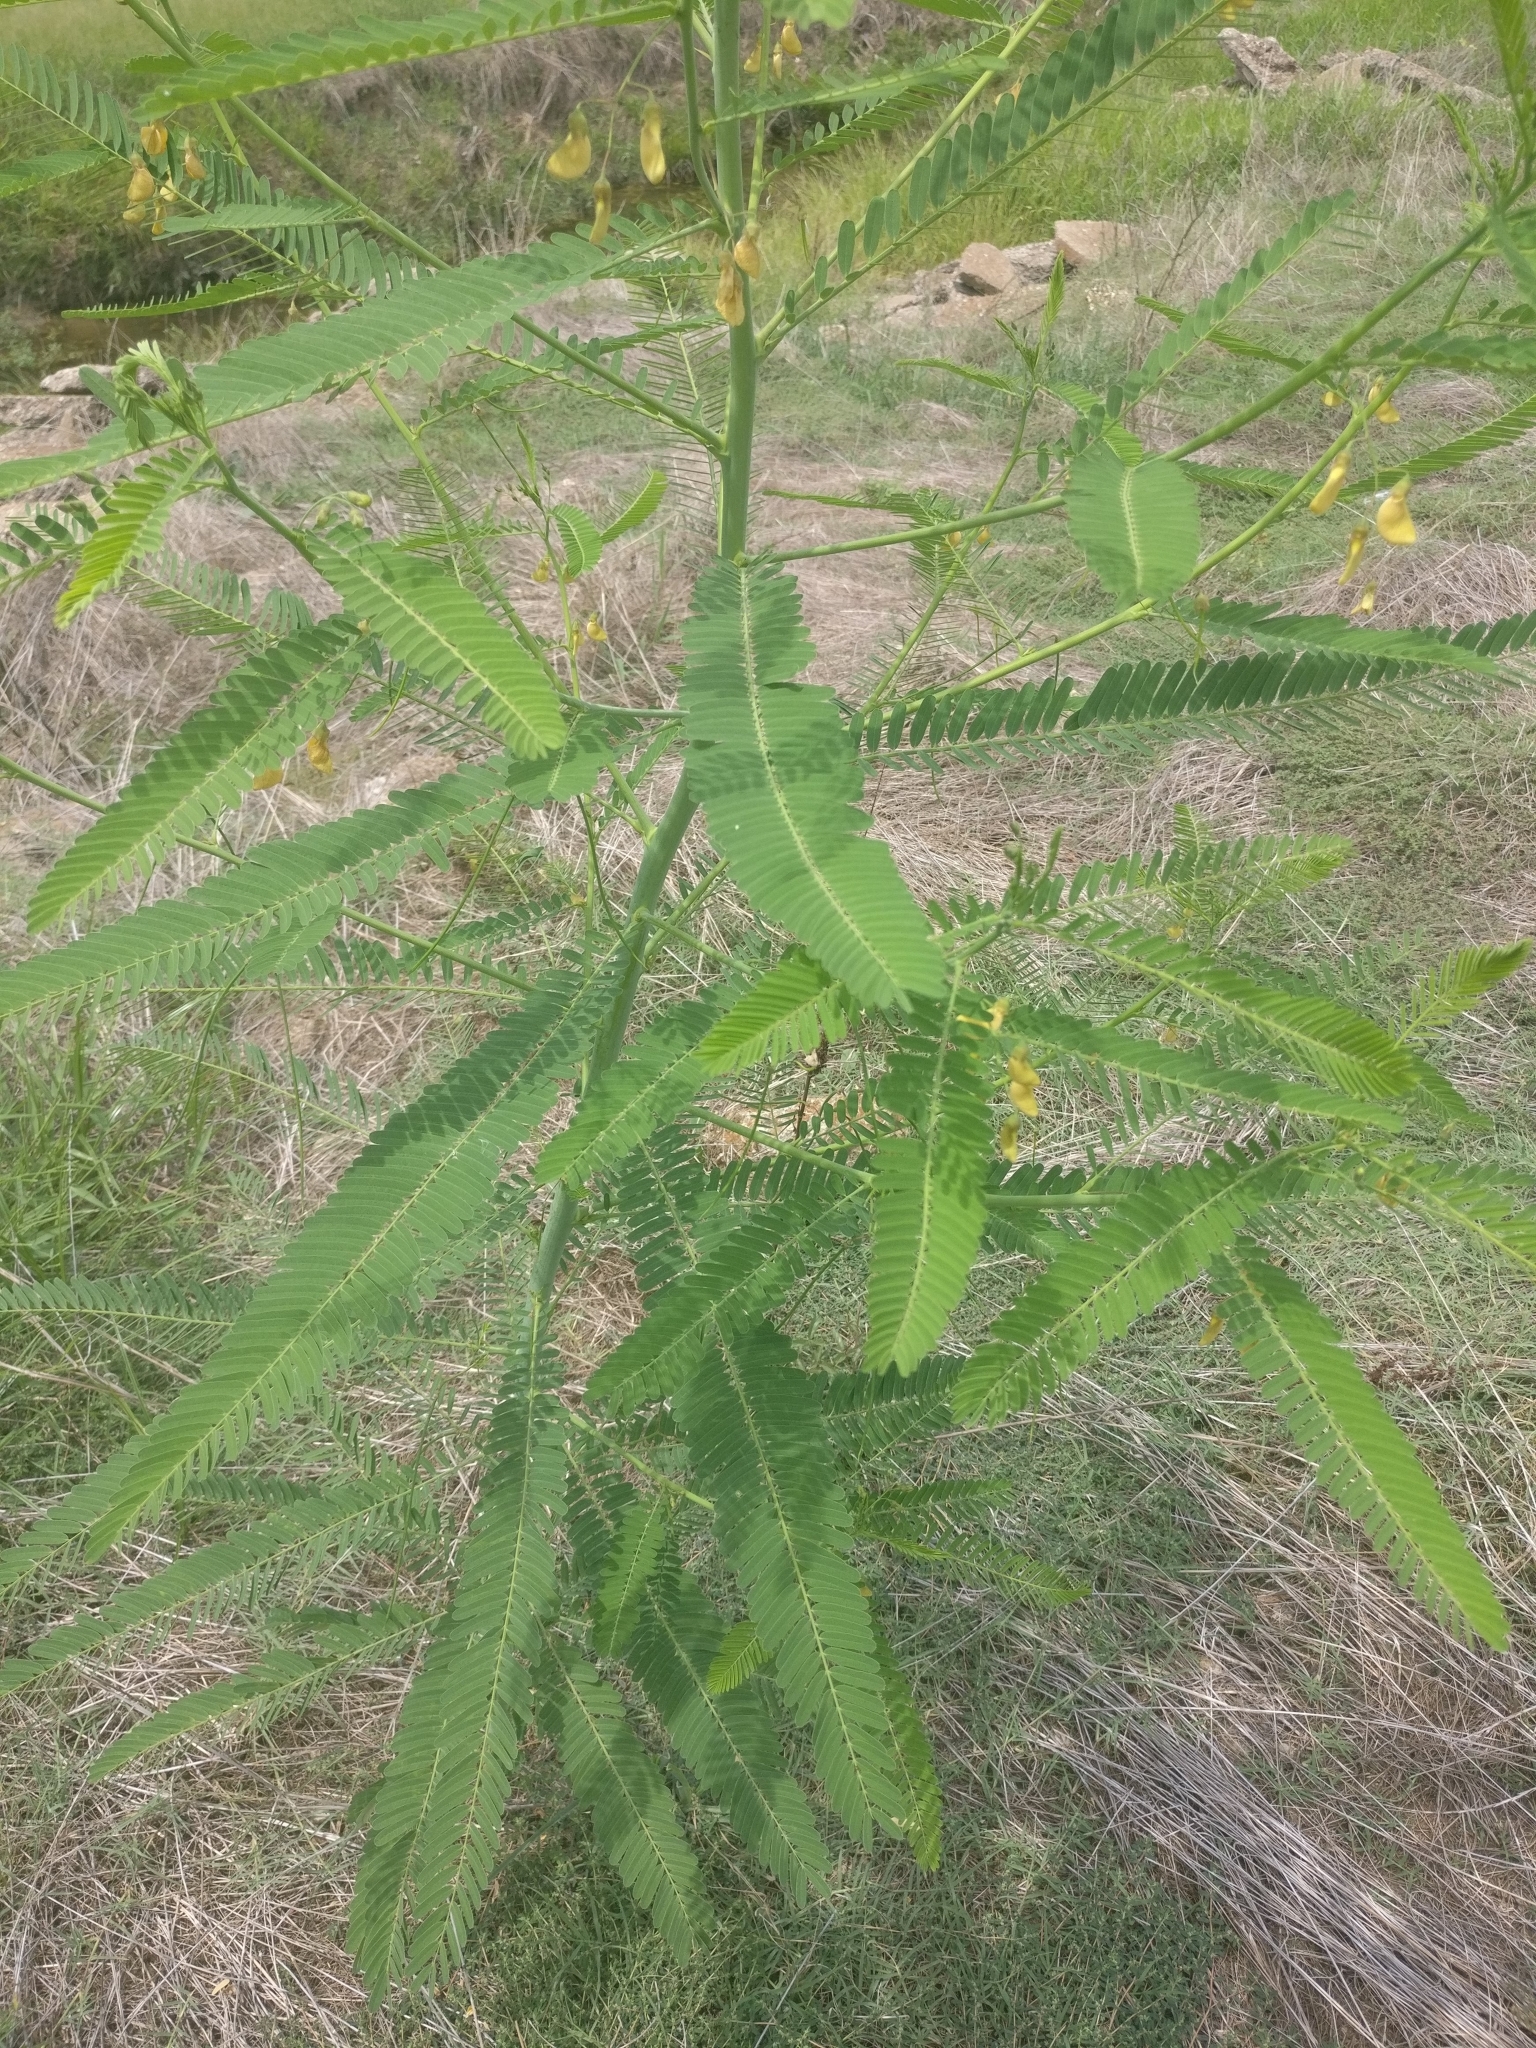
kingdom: Plantae
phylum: Tracheophyta
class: Magnoliopsida
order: Fabales
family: Fabaceae
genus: Sesbania
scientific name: Sesbania herbacea
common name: Bigpod sesbania
